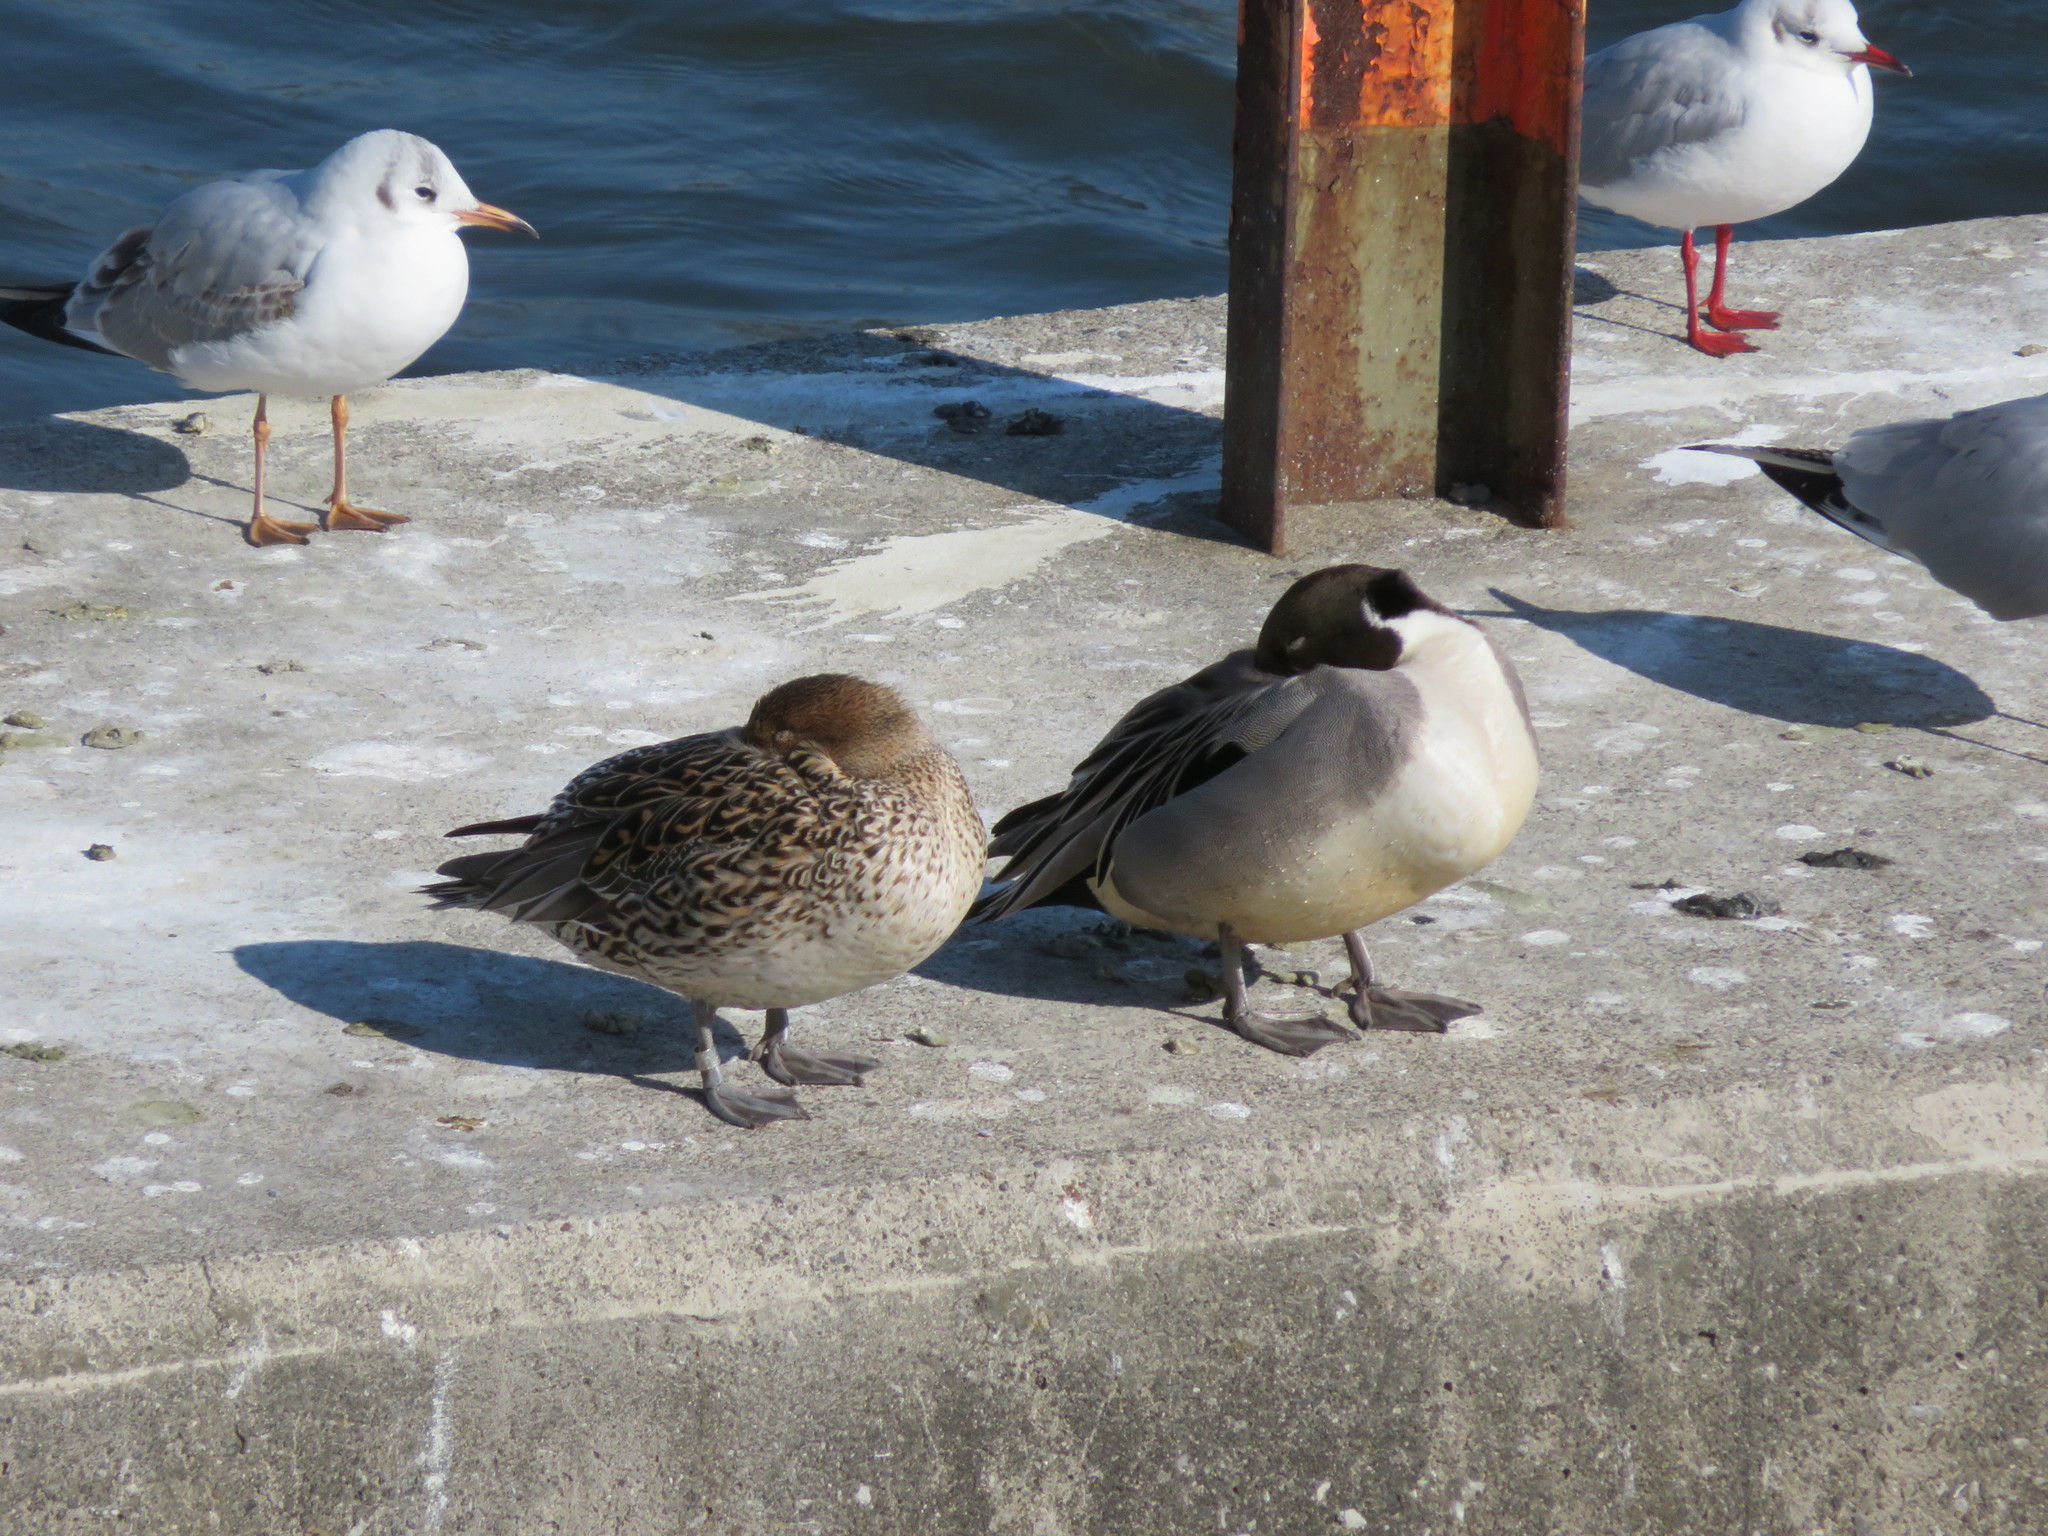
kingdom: Animalia
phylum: Chordata
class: Aves
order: Anseriformes
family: Anatidae
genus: Anas
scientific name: Anas acuta
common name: Northern pintail
